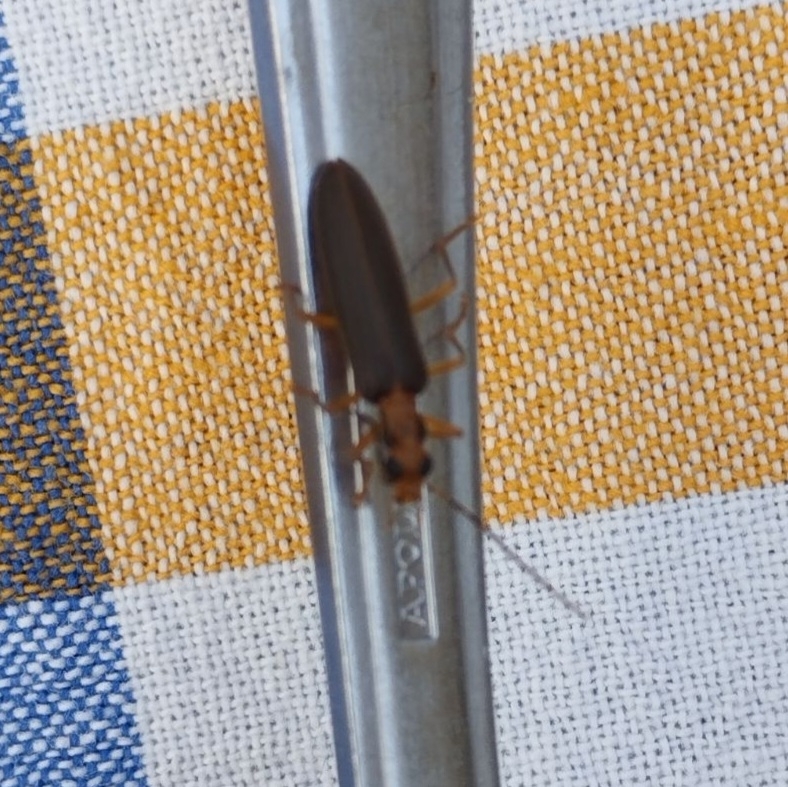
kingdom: Animalia
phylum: Arthropoda
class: Insecta
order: Coleoptera
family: Oedemeridae
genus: Nacerdes
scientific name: Nacerdes carniolica
